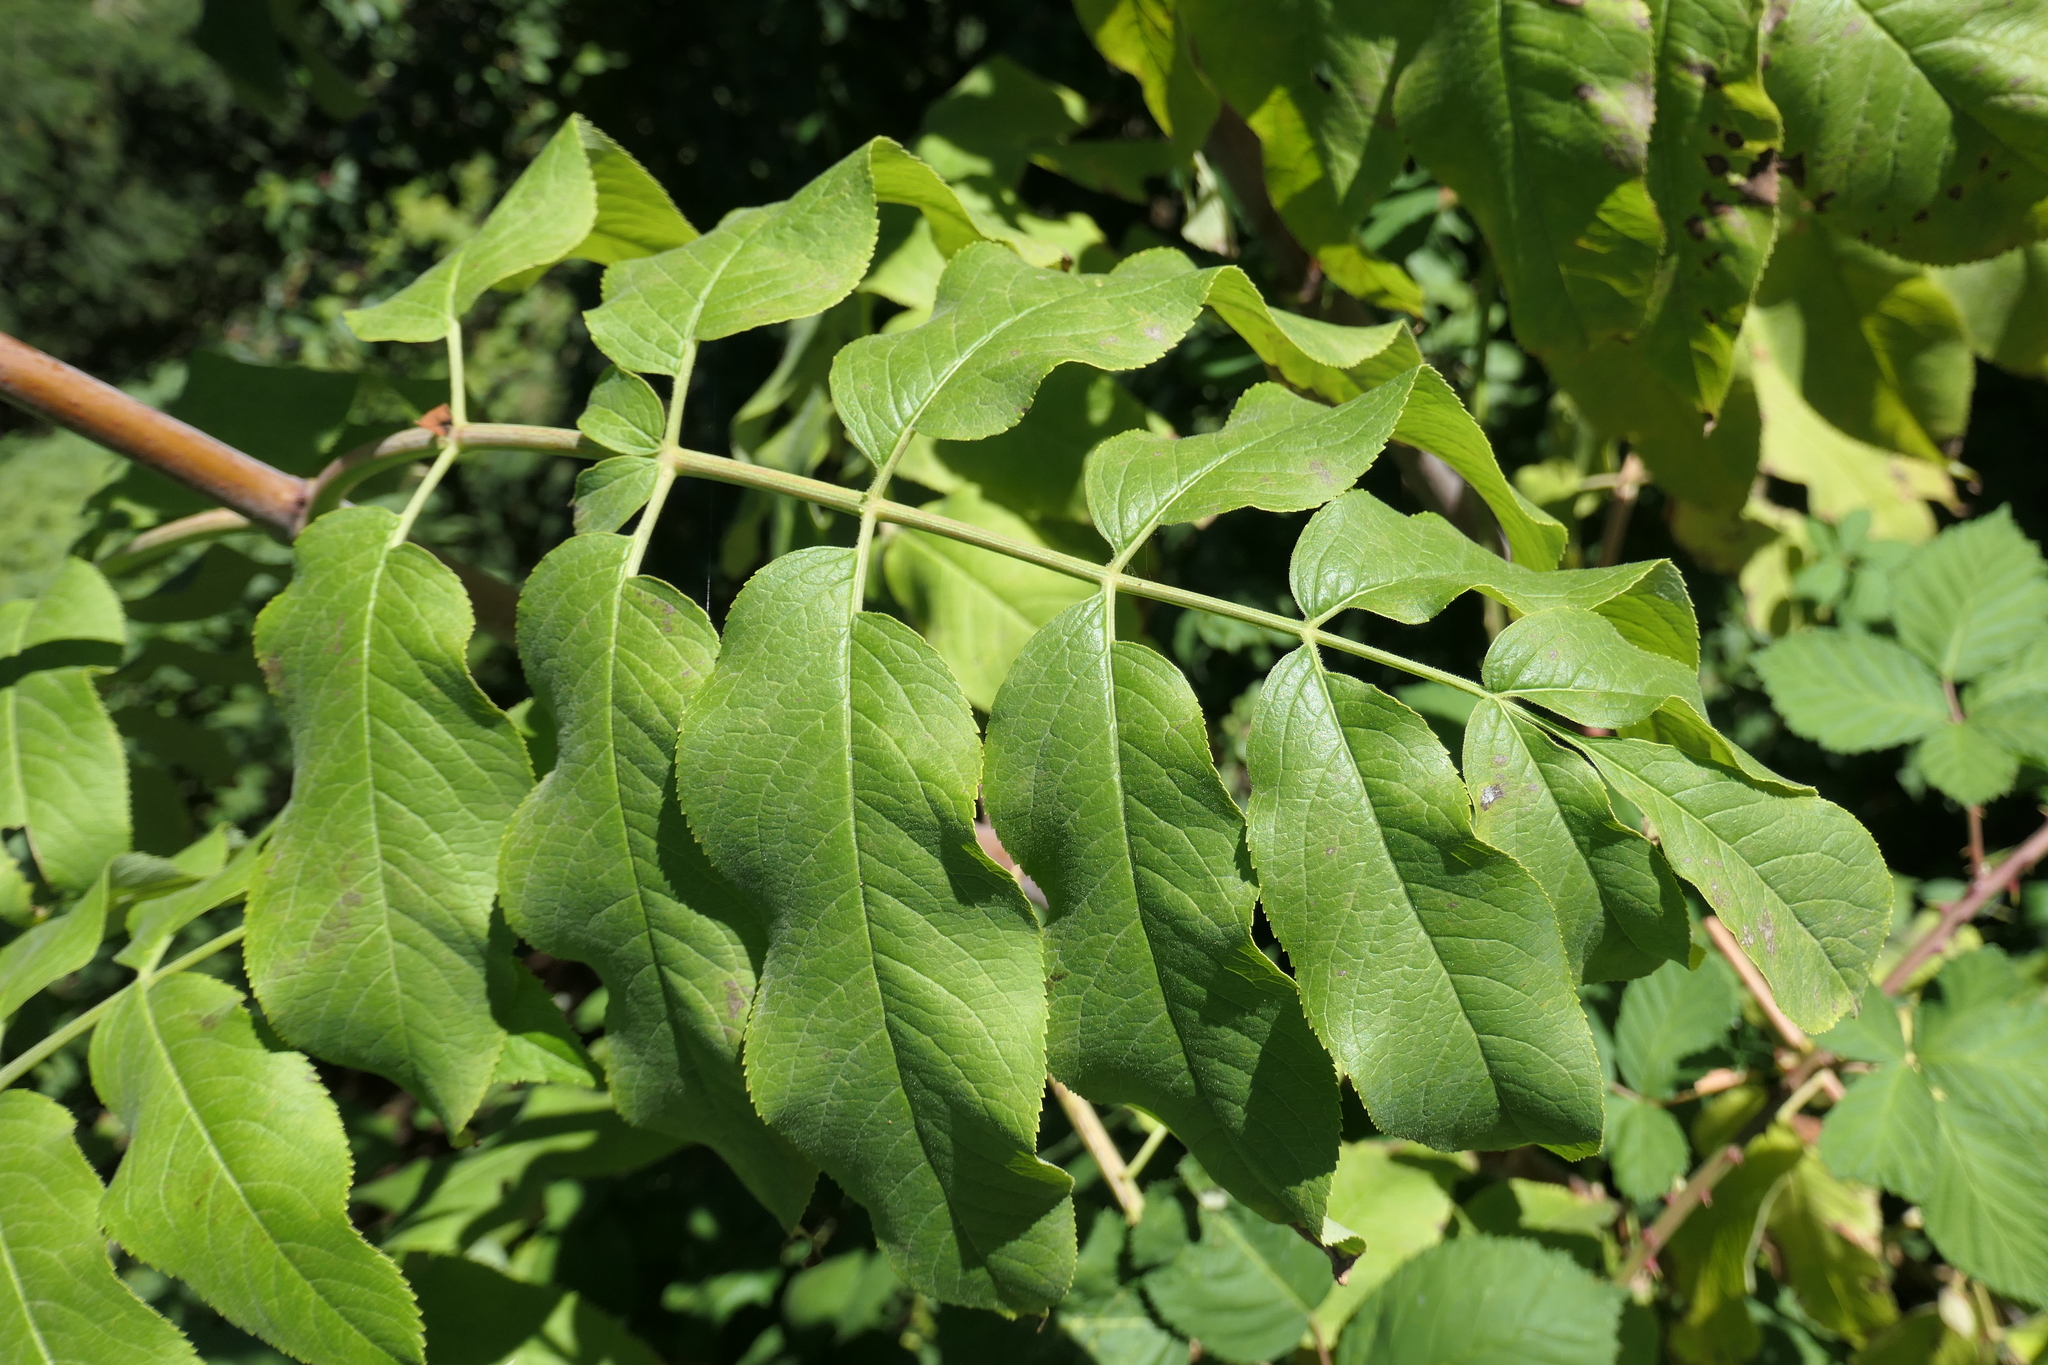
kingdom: Plantae
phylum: Tracheophyta
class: Magnoliopsida
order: Dipsacales
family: Viburnaceae
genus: Sambucus
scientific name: Sambucus cerulea
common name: Blue elder
